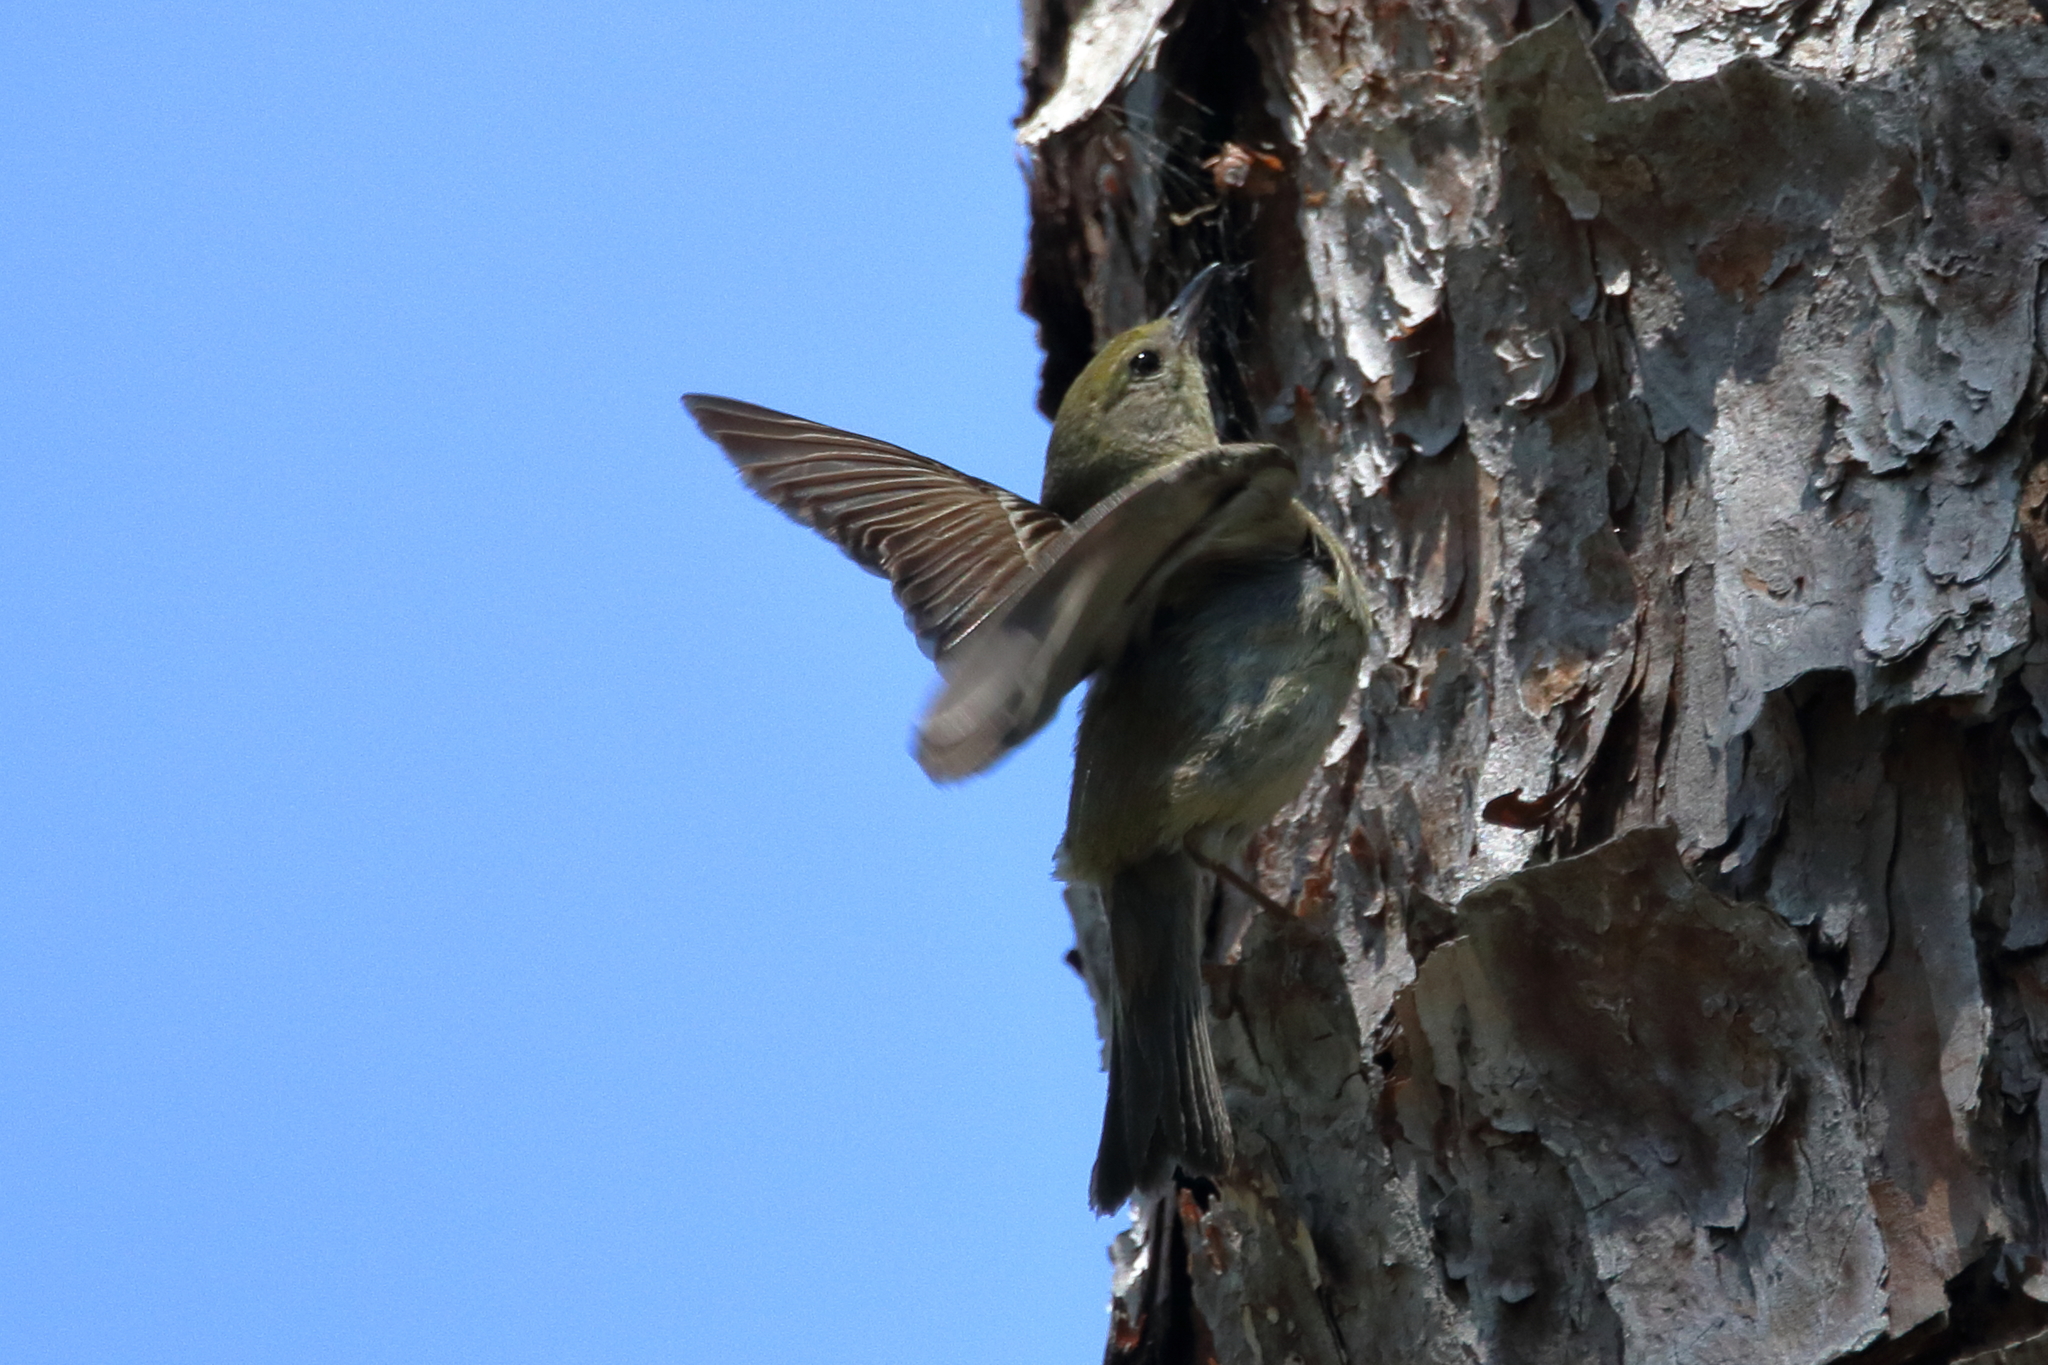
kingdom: Animalia
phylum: Chordata
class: Aves
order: Passeriformes
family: Parulidae
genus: Setophaga
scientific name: Setophaga pinus
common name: Pine warbler
